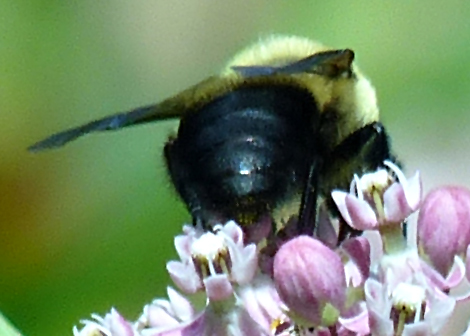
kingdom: Animalia
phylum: Arthropoda
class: Insecta
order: Hymenoptera
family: Apidae
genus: Bombus
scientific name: Bombus griseocollis
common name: Brown-belted bumble bee
